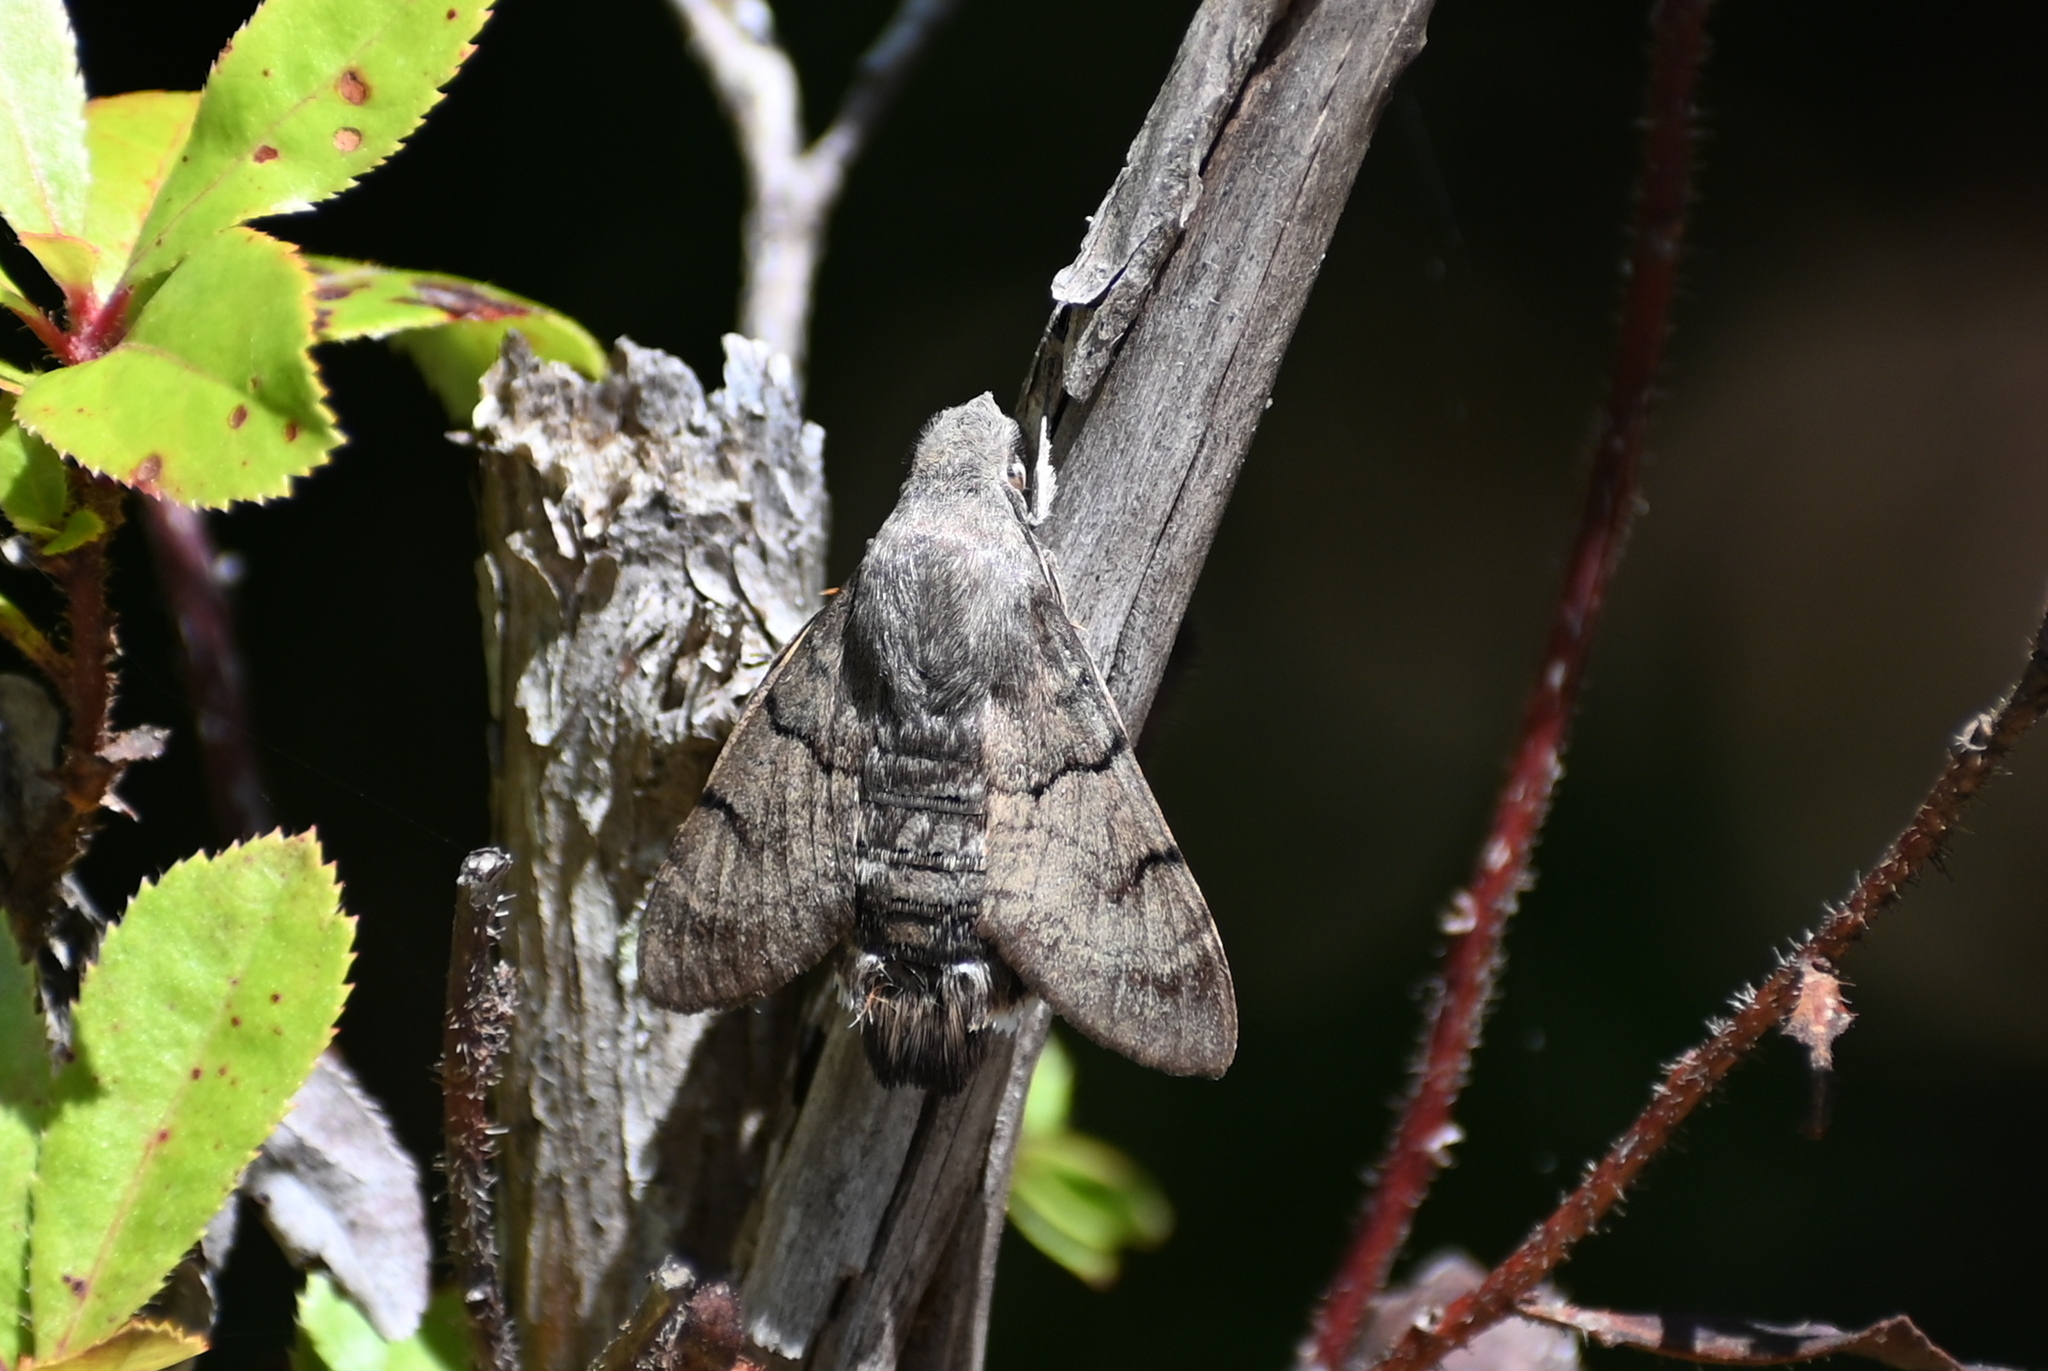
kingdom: Animalia
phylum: Arthropoda
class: Insecta
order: Lepidoptera
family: Sphingidae
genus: Macroglossum
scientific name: Macroglossum stellatarum
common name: Humming-bird hawk-moth
